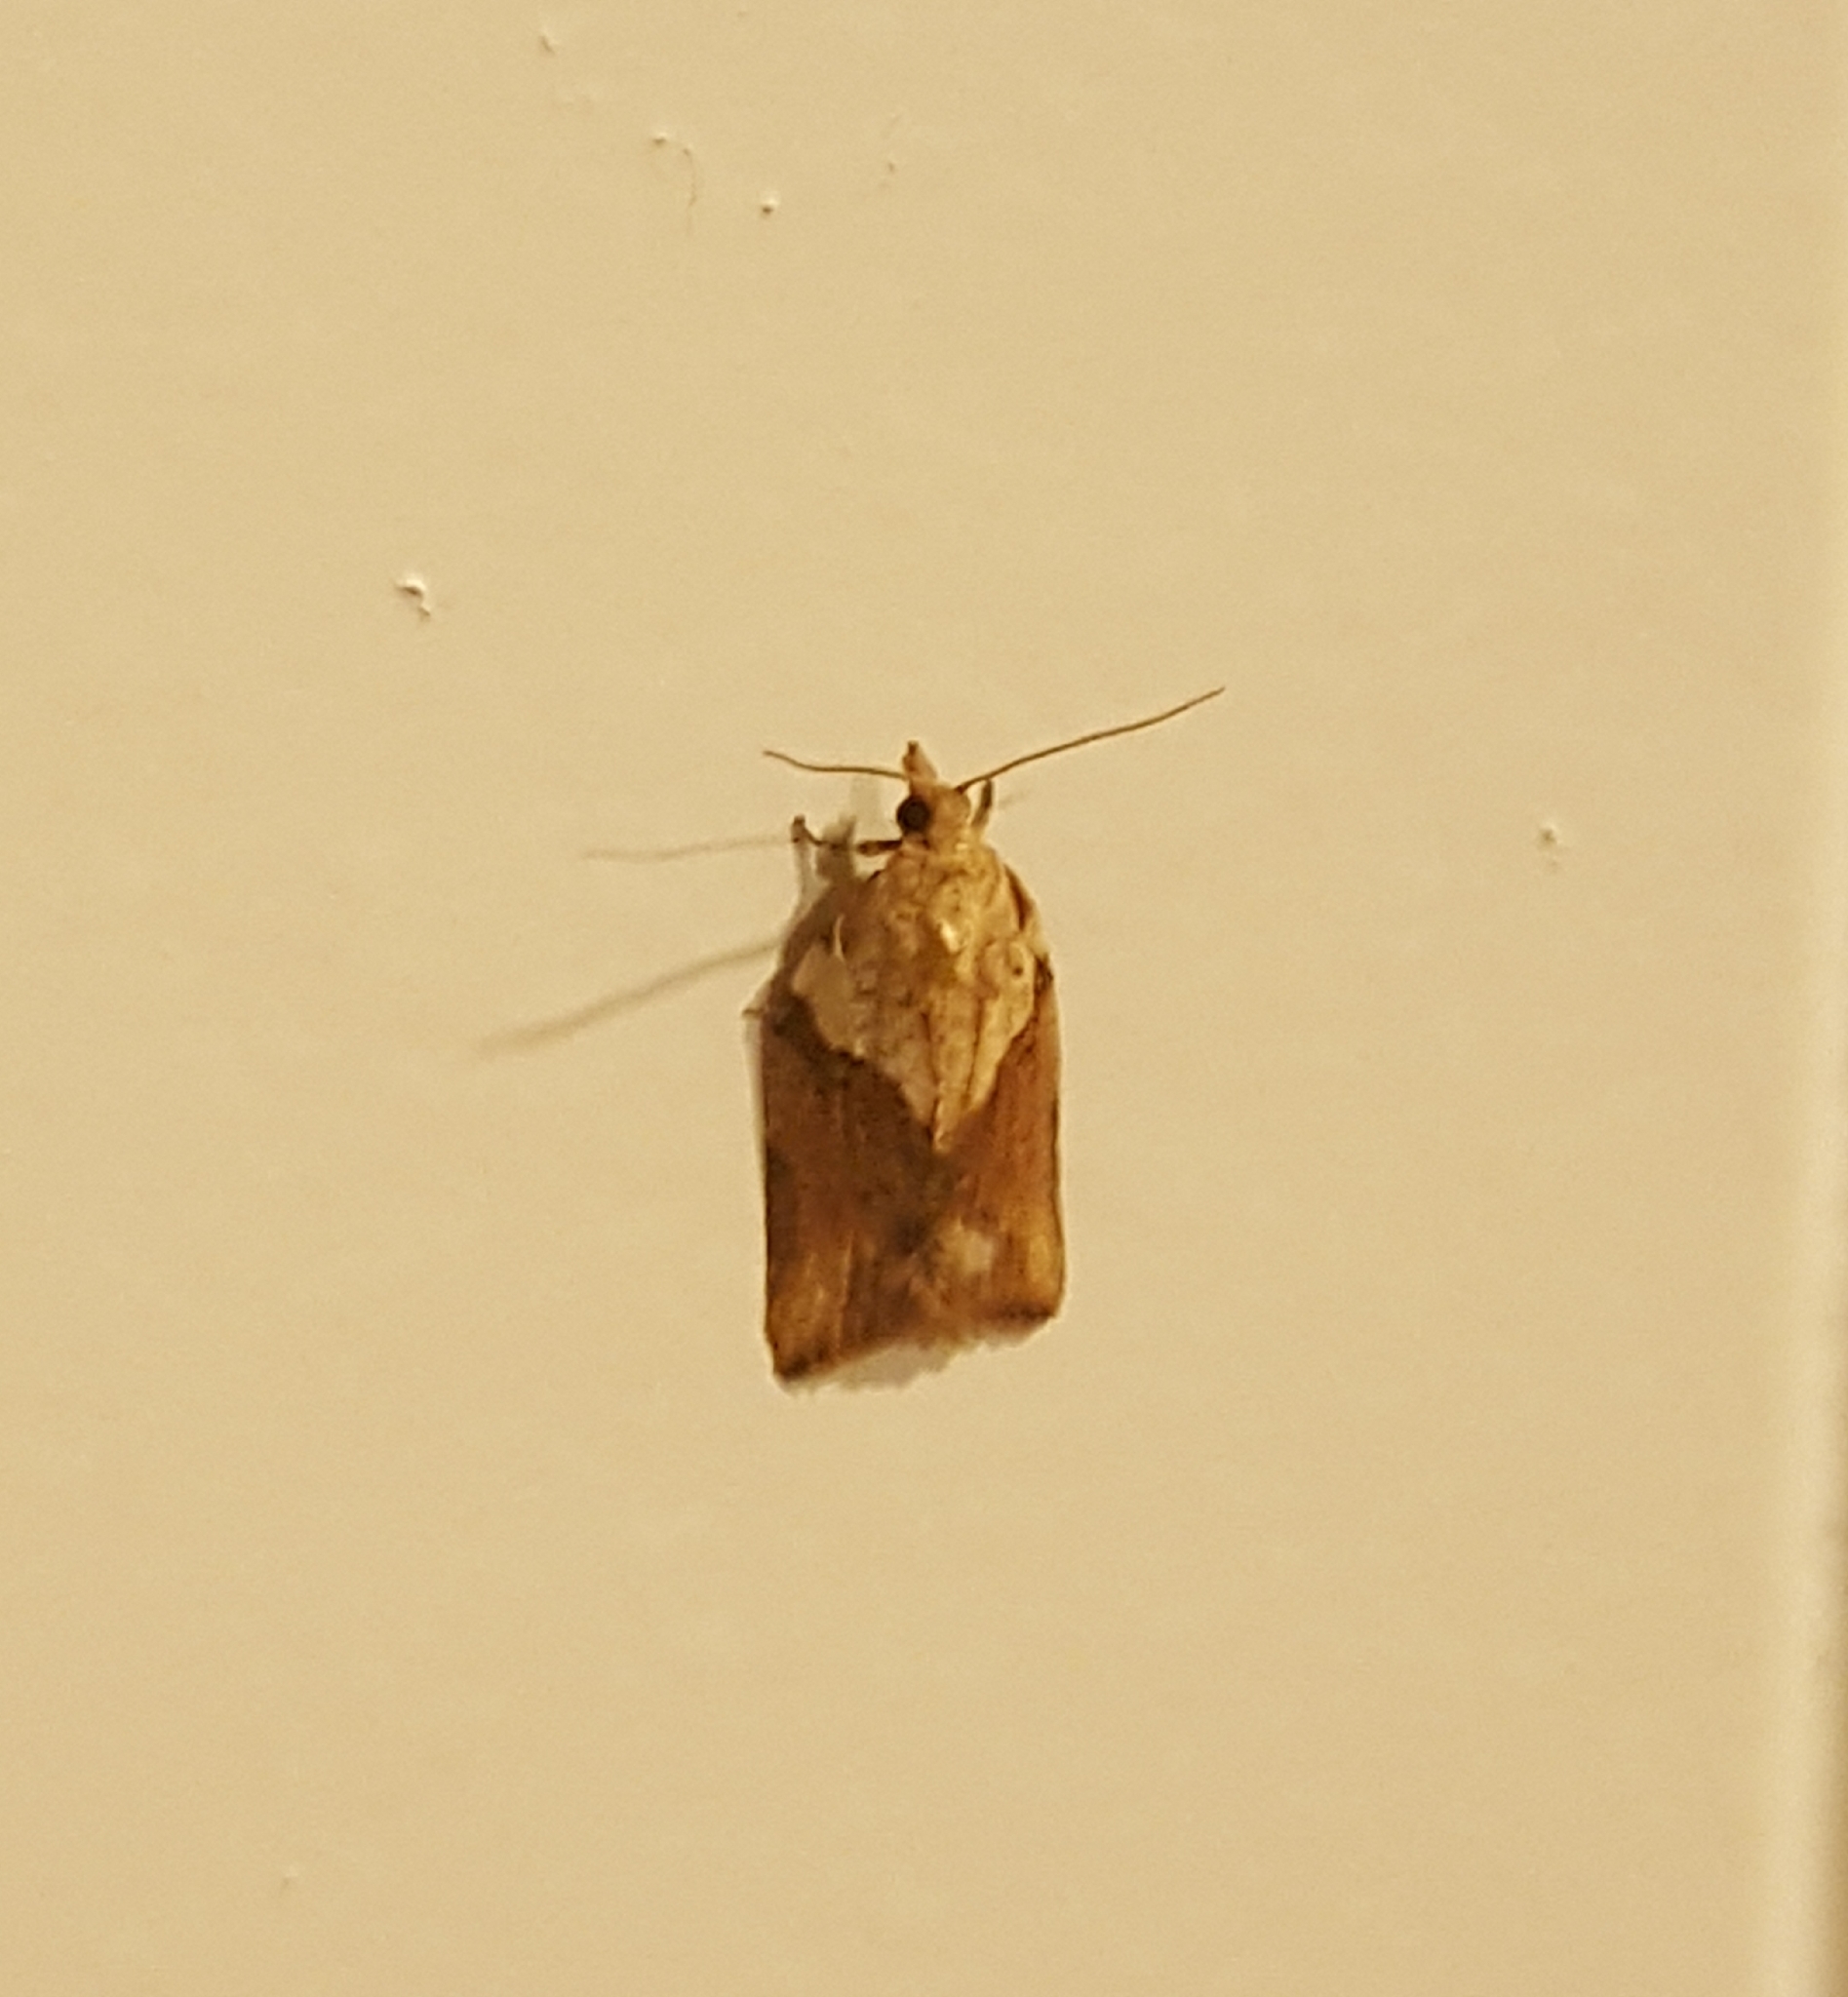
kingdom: Animalia
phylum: Arthropoda
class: Insecta
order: Lepidoptera
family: Tortricidae
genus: Epiphyas
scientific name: Epiphyas postvittana
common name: Light brown apple moth
